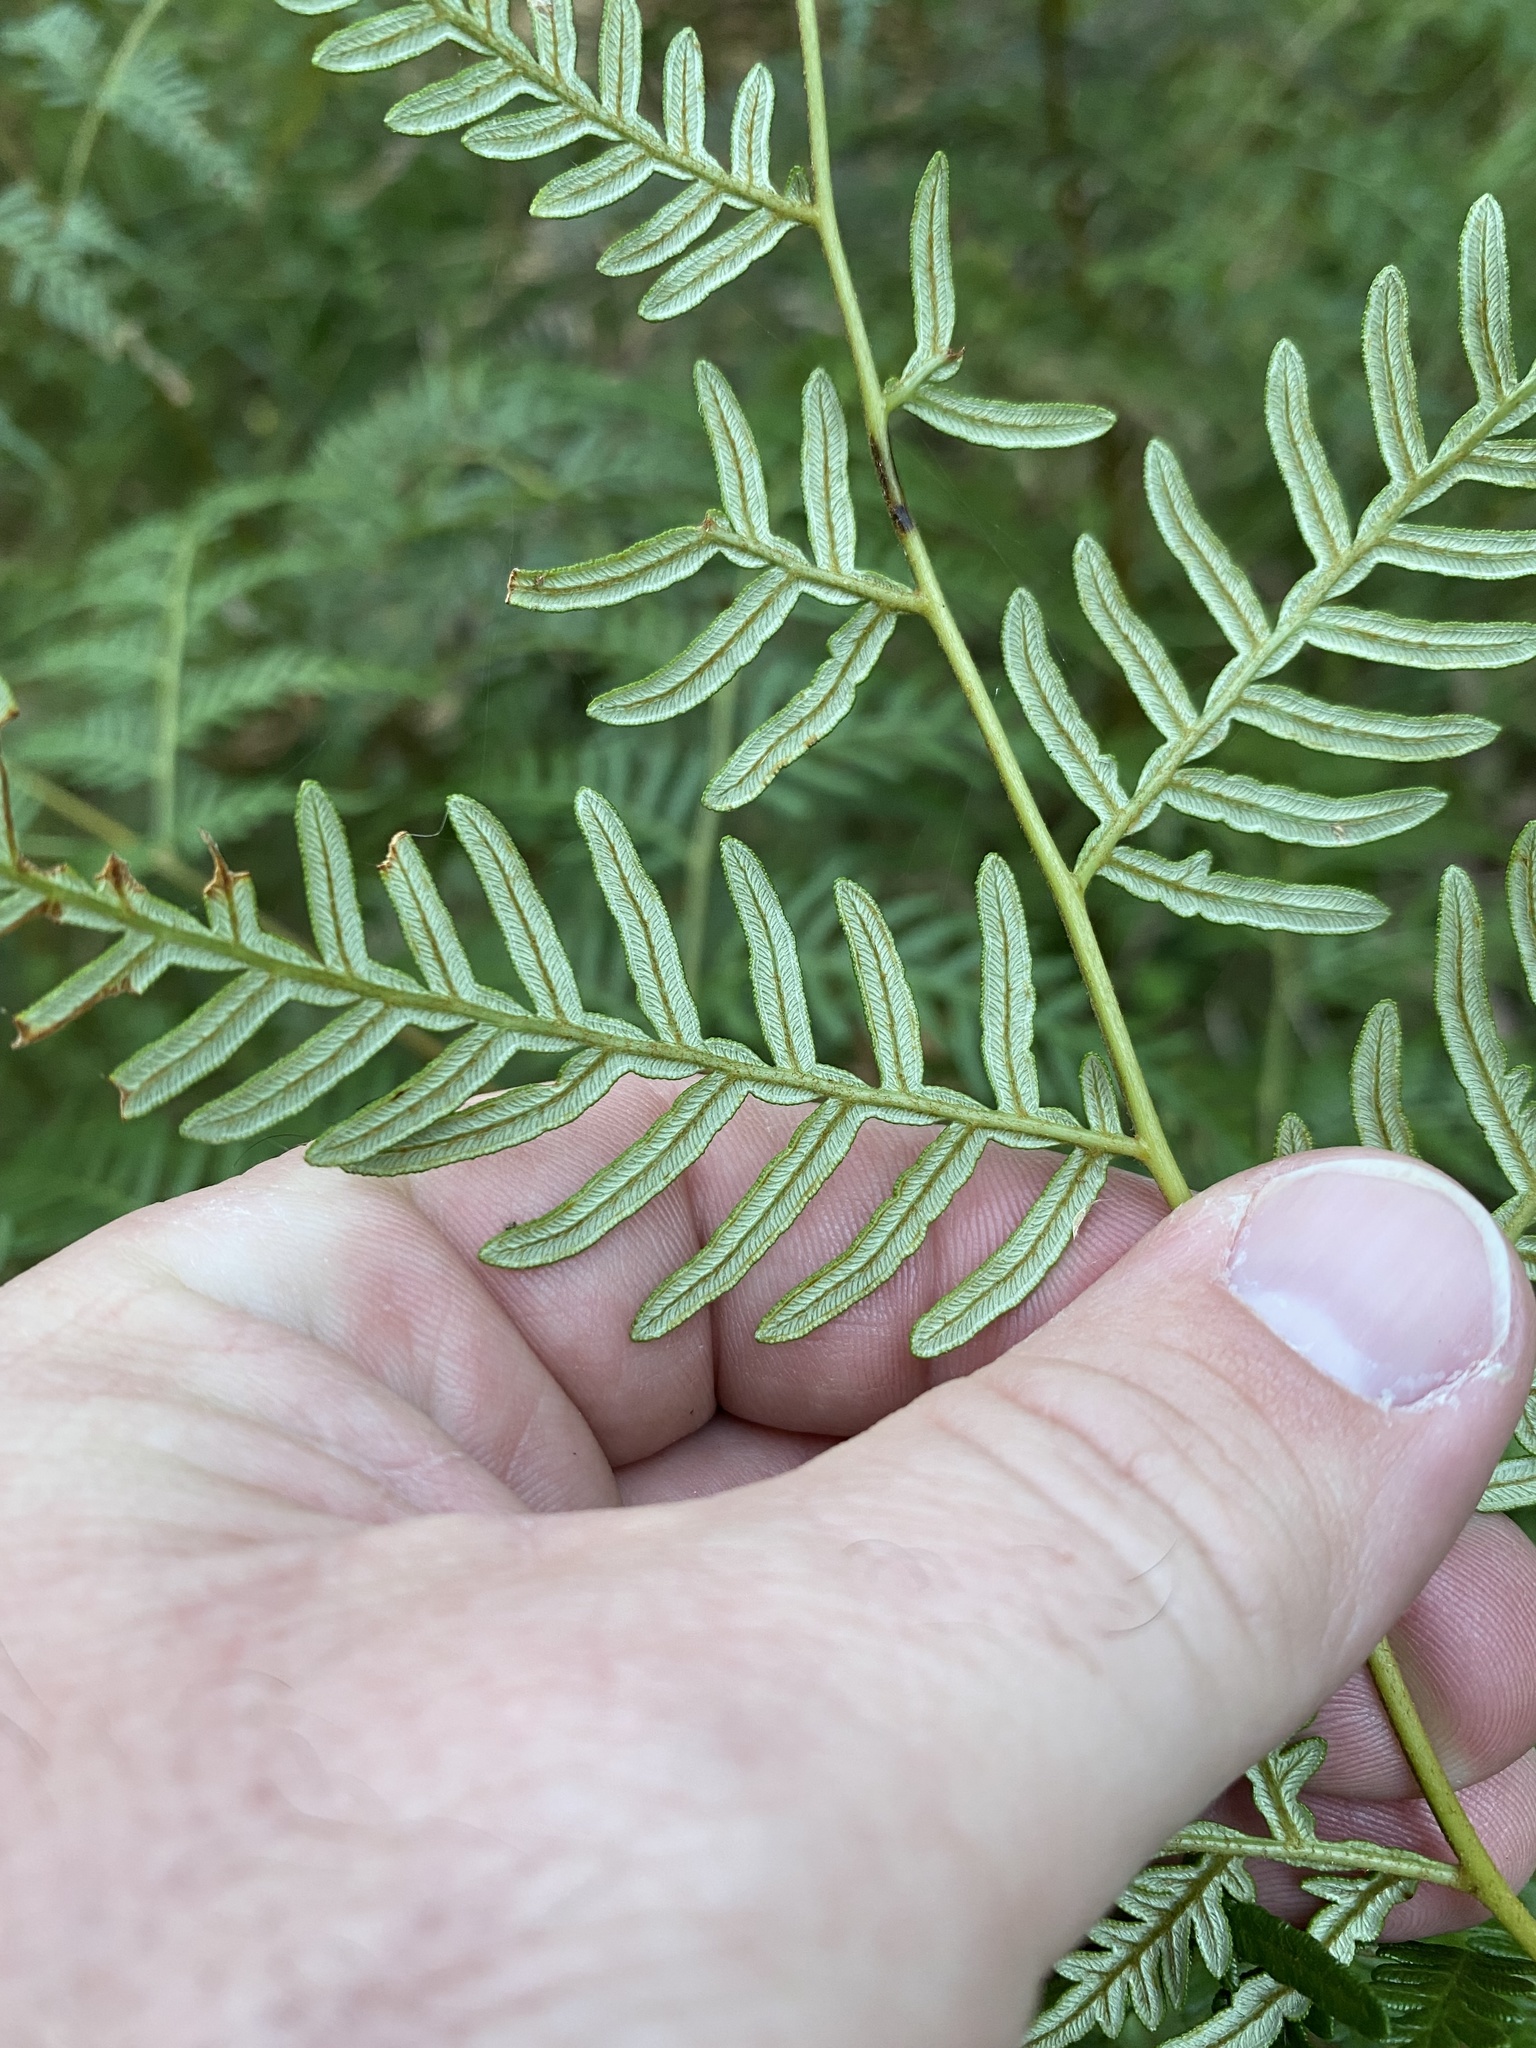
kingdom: Plantae
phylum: Tracheophyta
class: Polypodiopsida
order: Polypodiales
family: Dennstaedtiaceae
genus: Pteridium
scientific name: Pteridium esculentum
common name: Bracken fern
